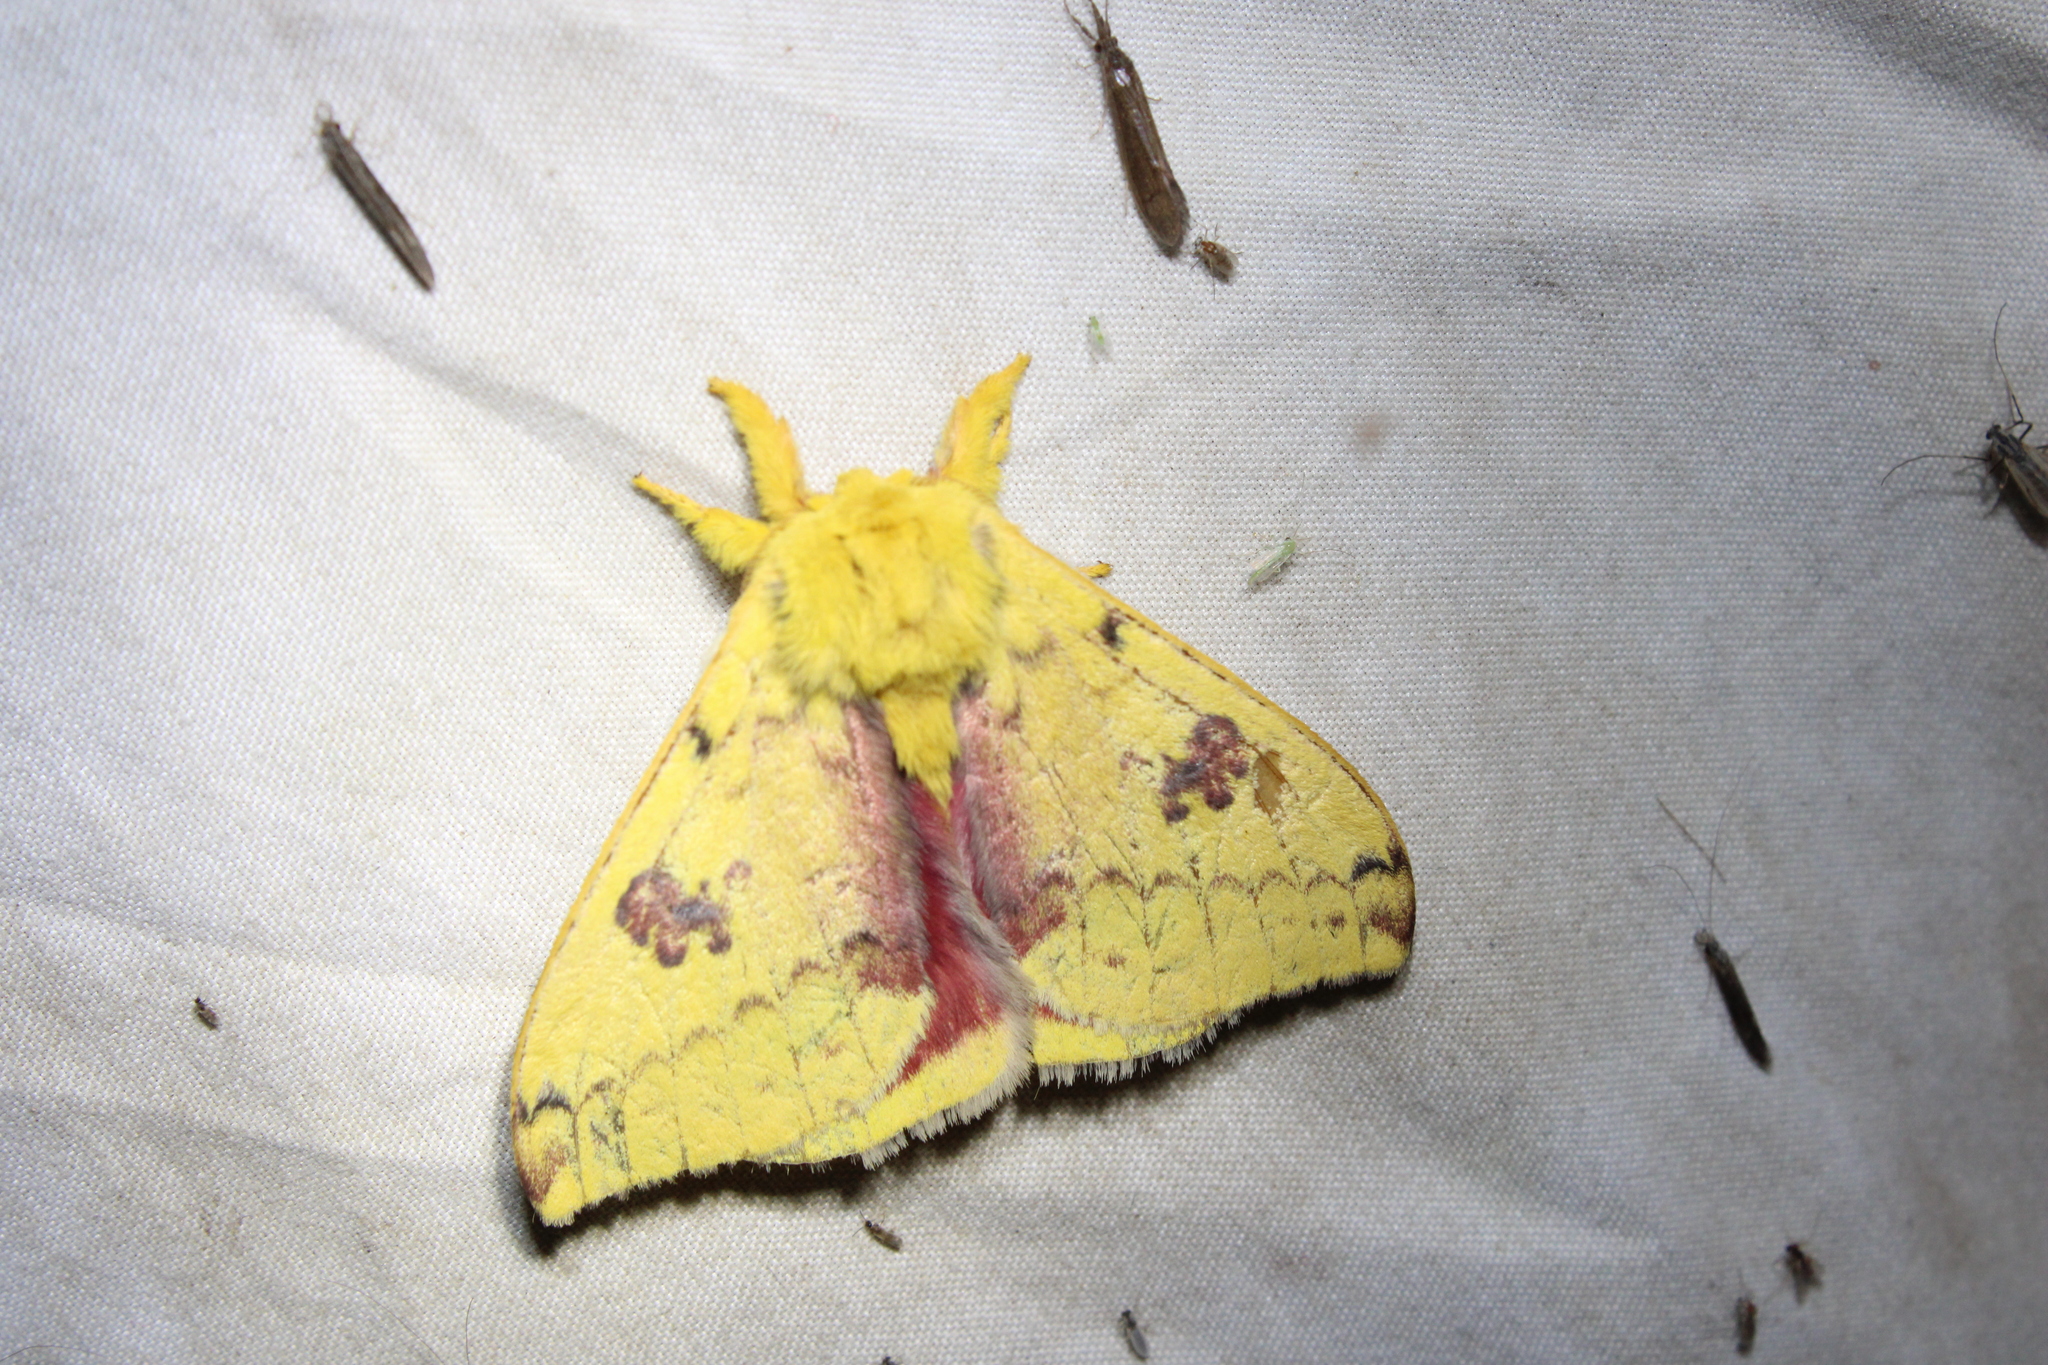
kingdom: Animalia
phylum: Arthropoda
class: Insecta
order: Lepidoptera
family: Saturniidae
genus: Automeris
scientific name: Automeris io
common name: Io moth
